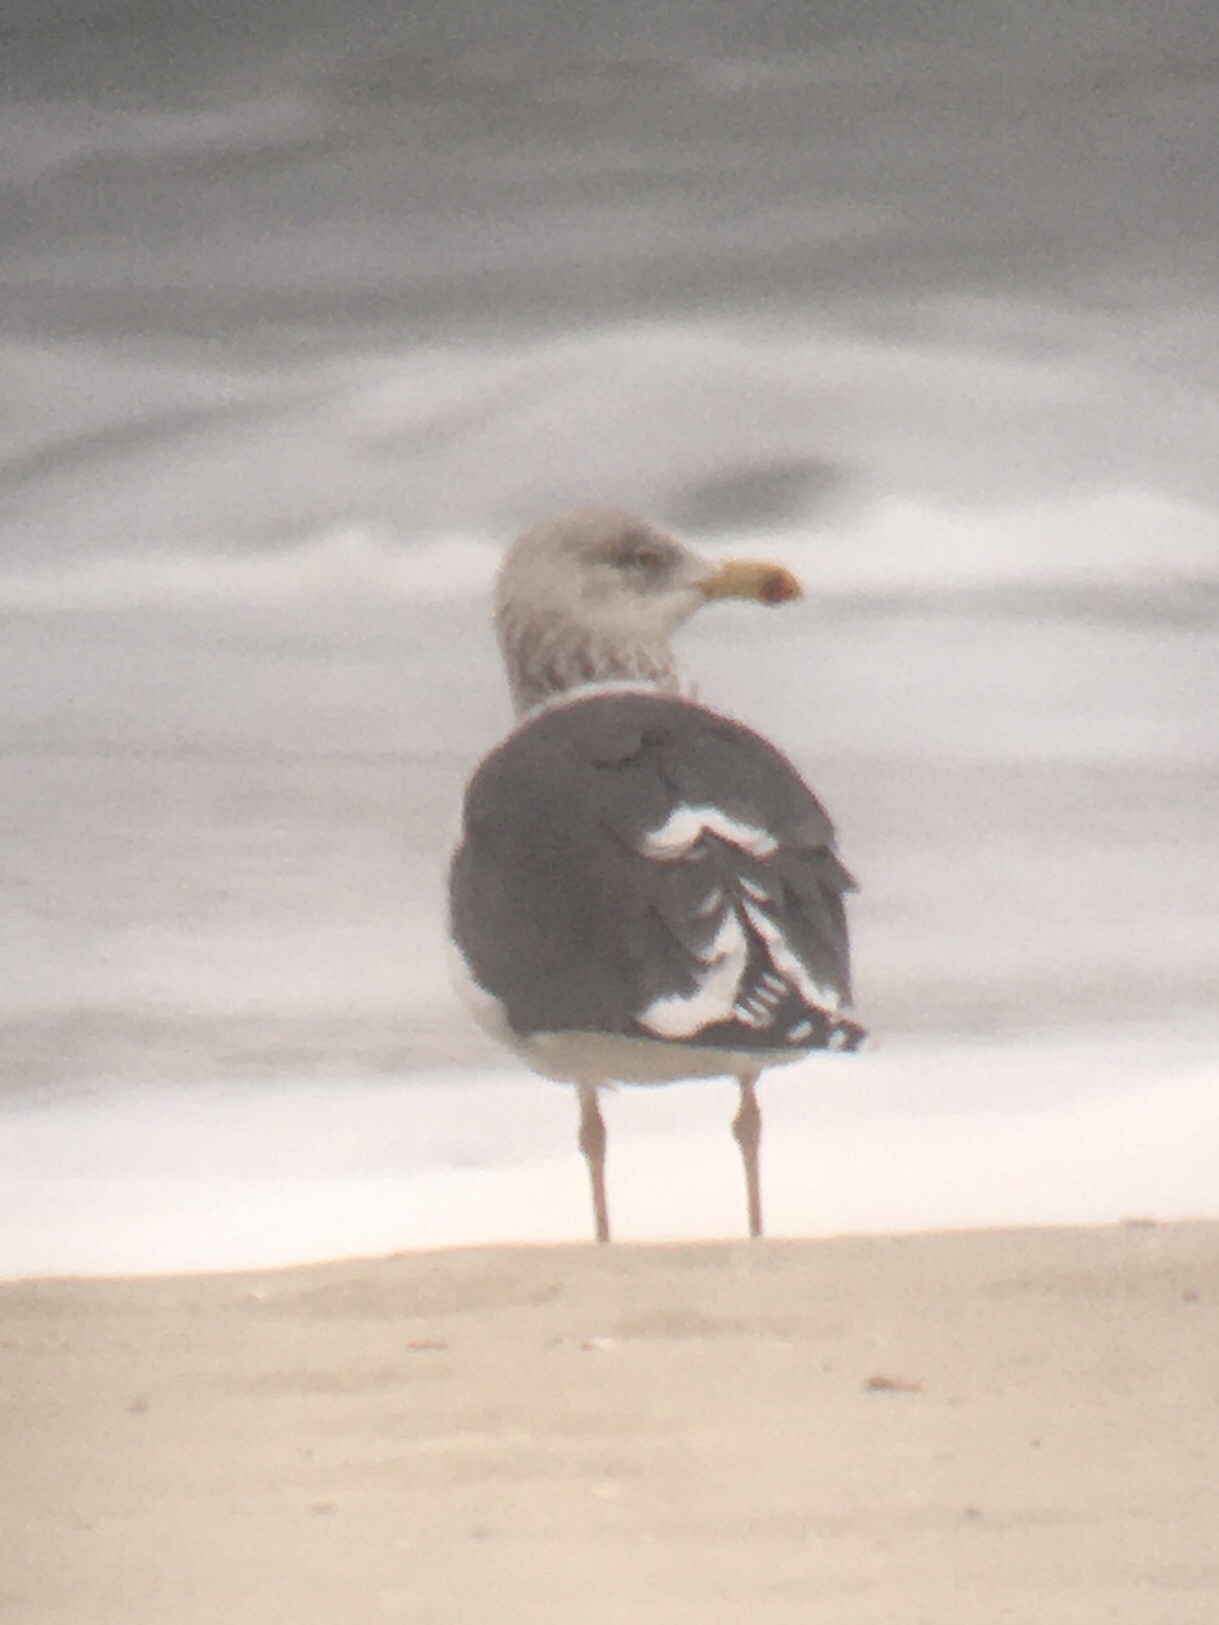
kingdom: Animalia
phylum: Chordata
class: Aves
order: Charadriiformes
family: Laridae
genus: Larus
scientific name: Larus fuscus
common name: Lesser black-backed gull
